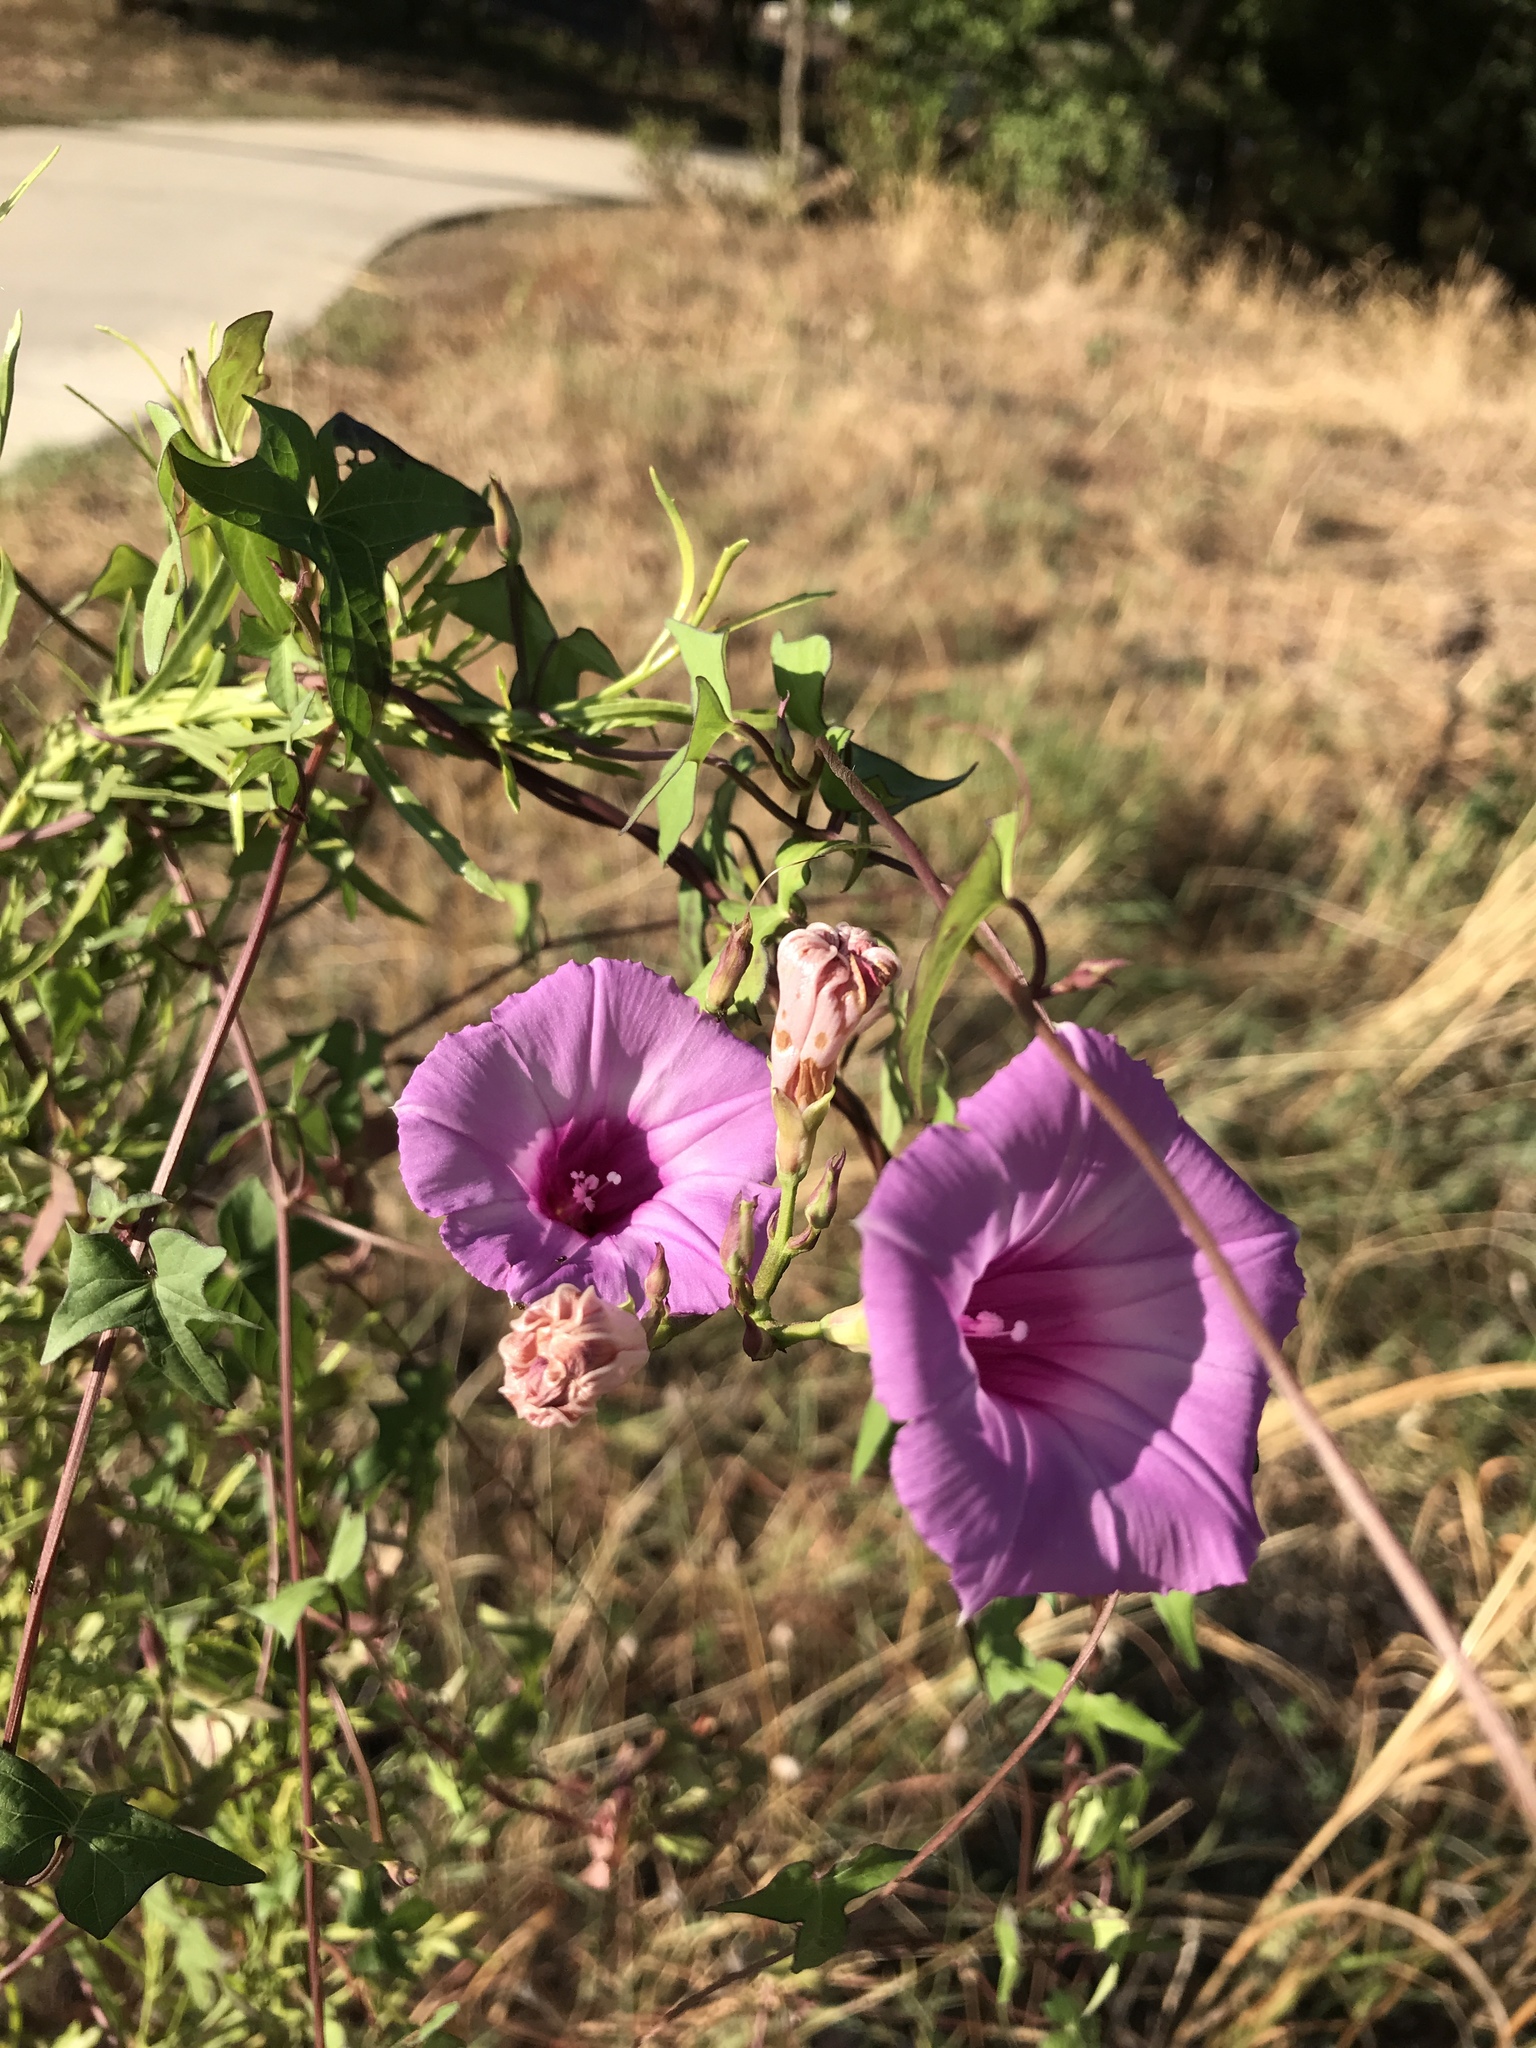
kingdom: Plantae
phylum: Tracheophyta
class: Magnoliopsida
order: Solanales
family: Convolvulaceae
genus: Ipomoea
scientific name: Ipomoea cordatotriloba
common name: Cotton morning glory
